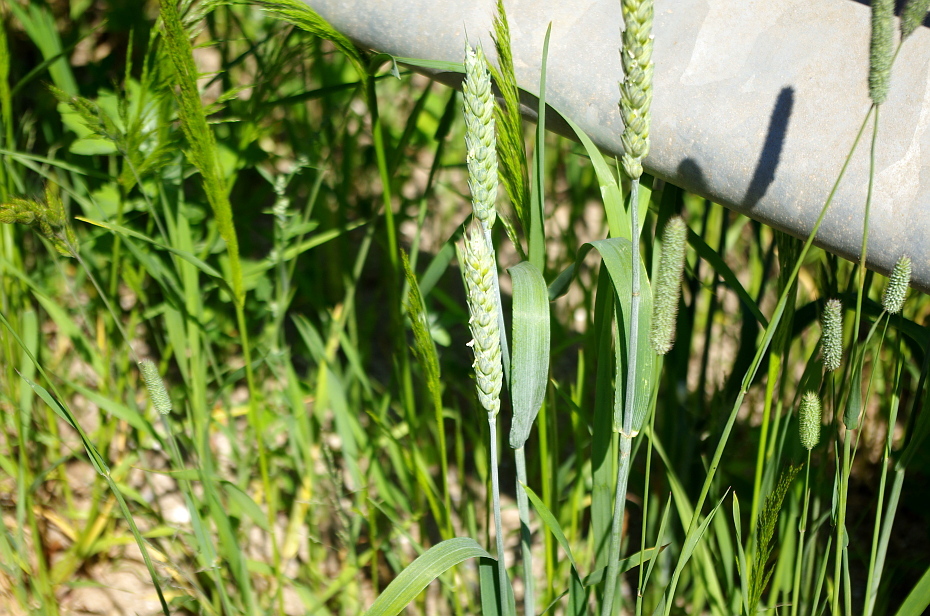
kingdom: Plantae
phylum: Tracheophyta
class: Liliopsida
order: Poales
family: Poaceae
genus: Triticum
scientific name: Triticum aestivum
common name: Common wheat
